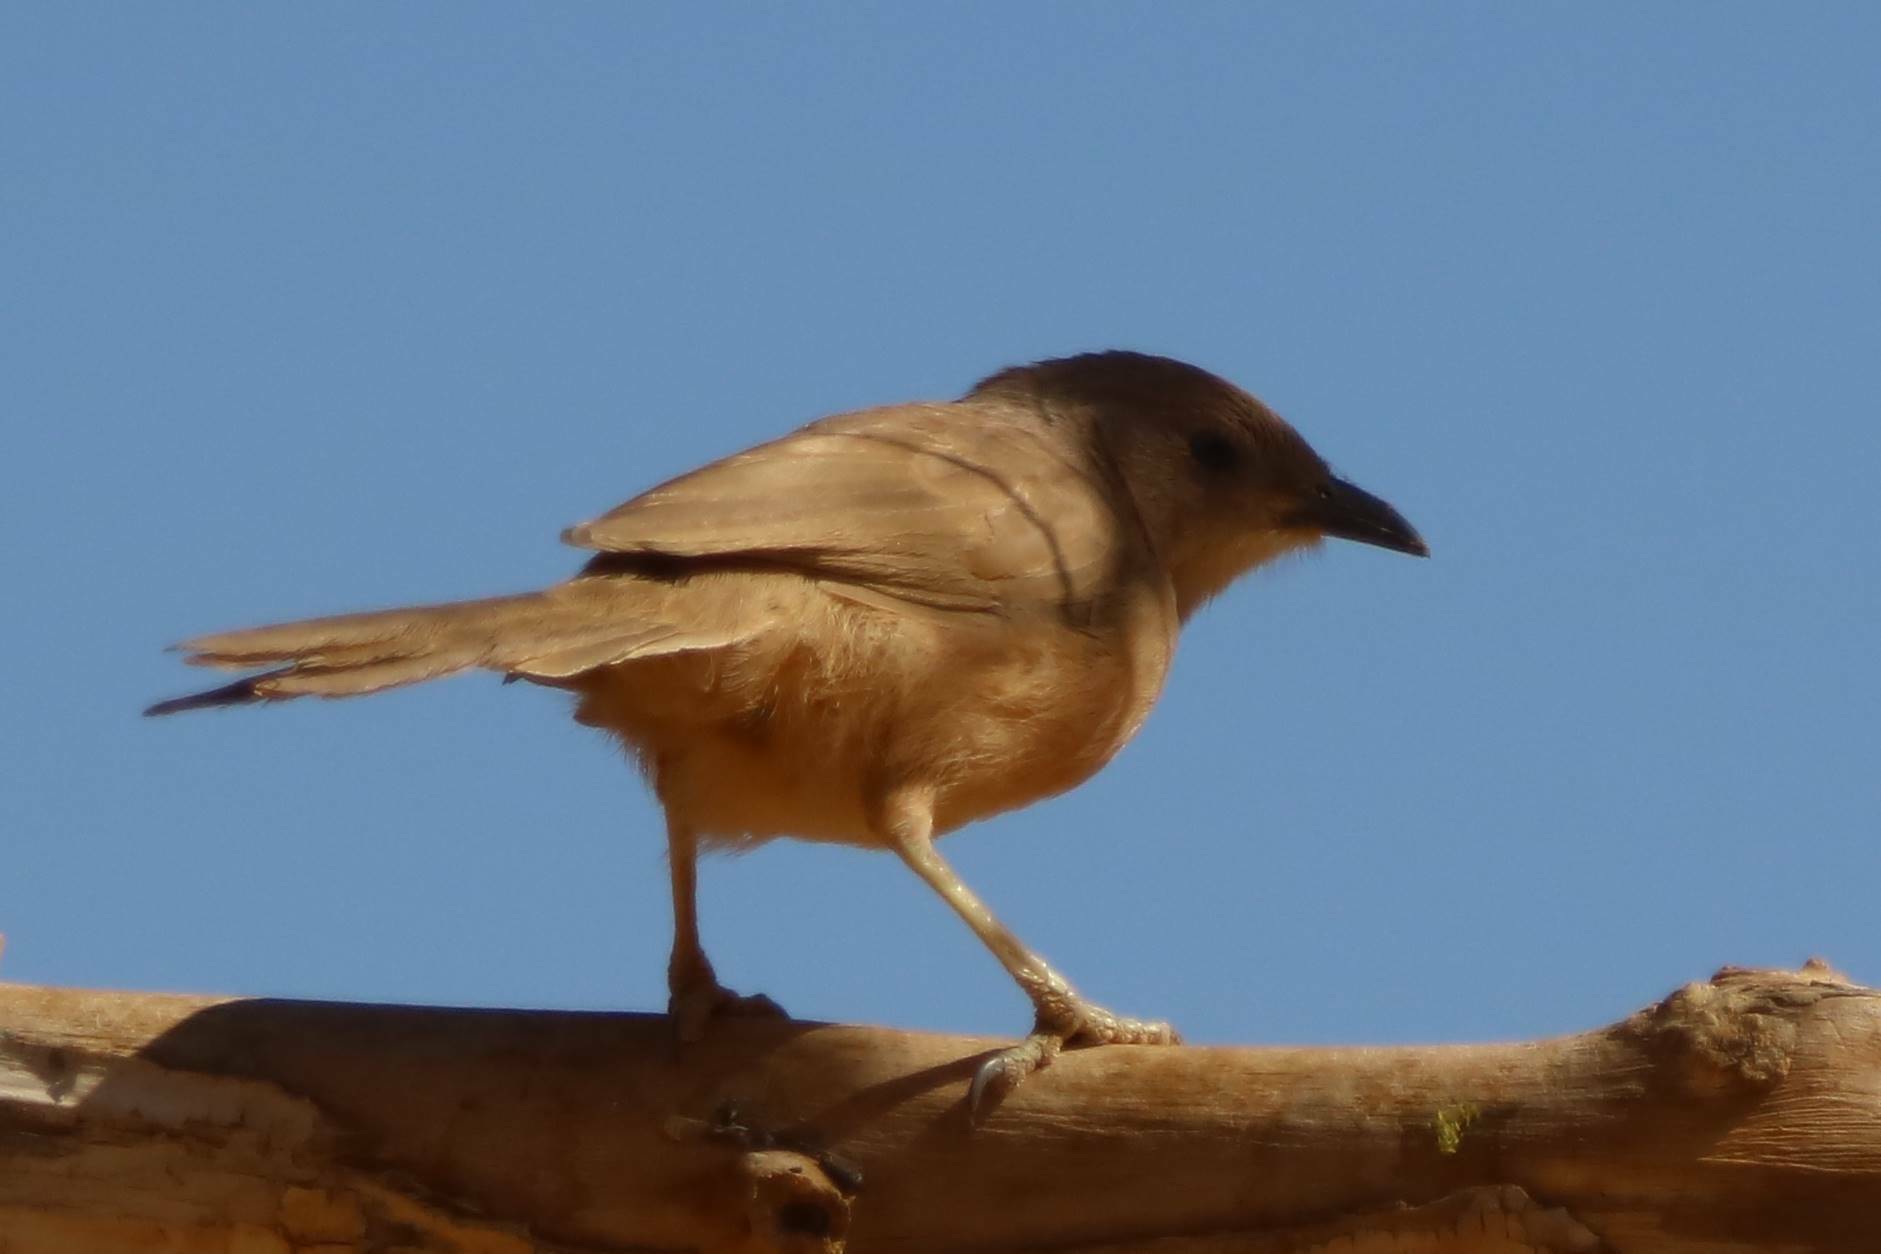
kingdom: Animalia
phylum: Chordata
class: Aves
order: Passeriformes
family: Leiothrichidae
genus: Turdoides
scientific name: Turdoides fulva
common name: Fulvous babbler
